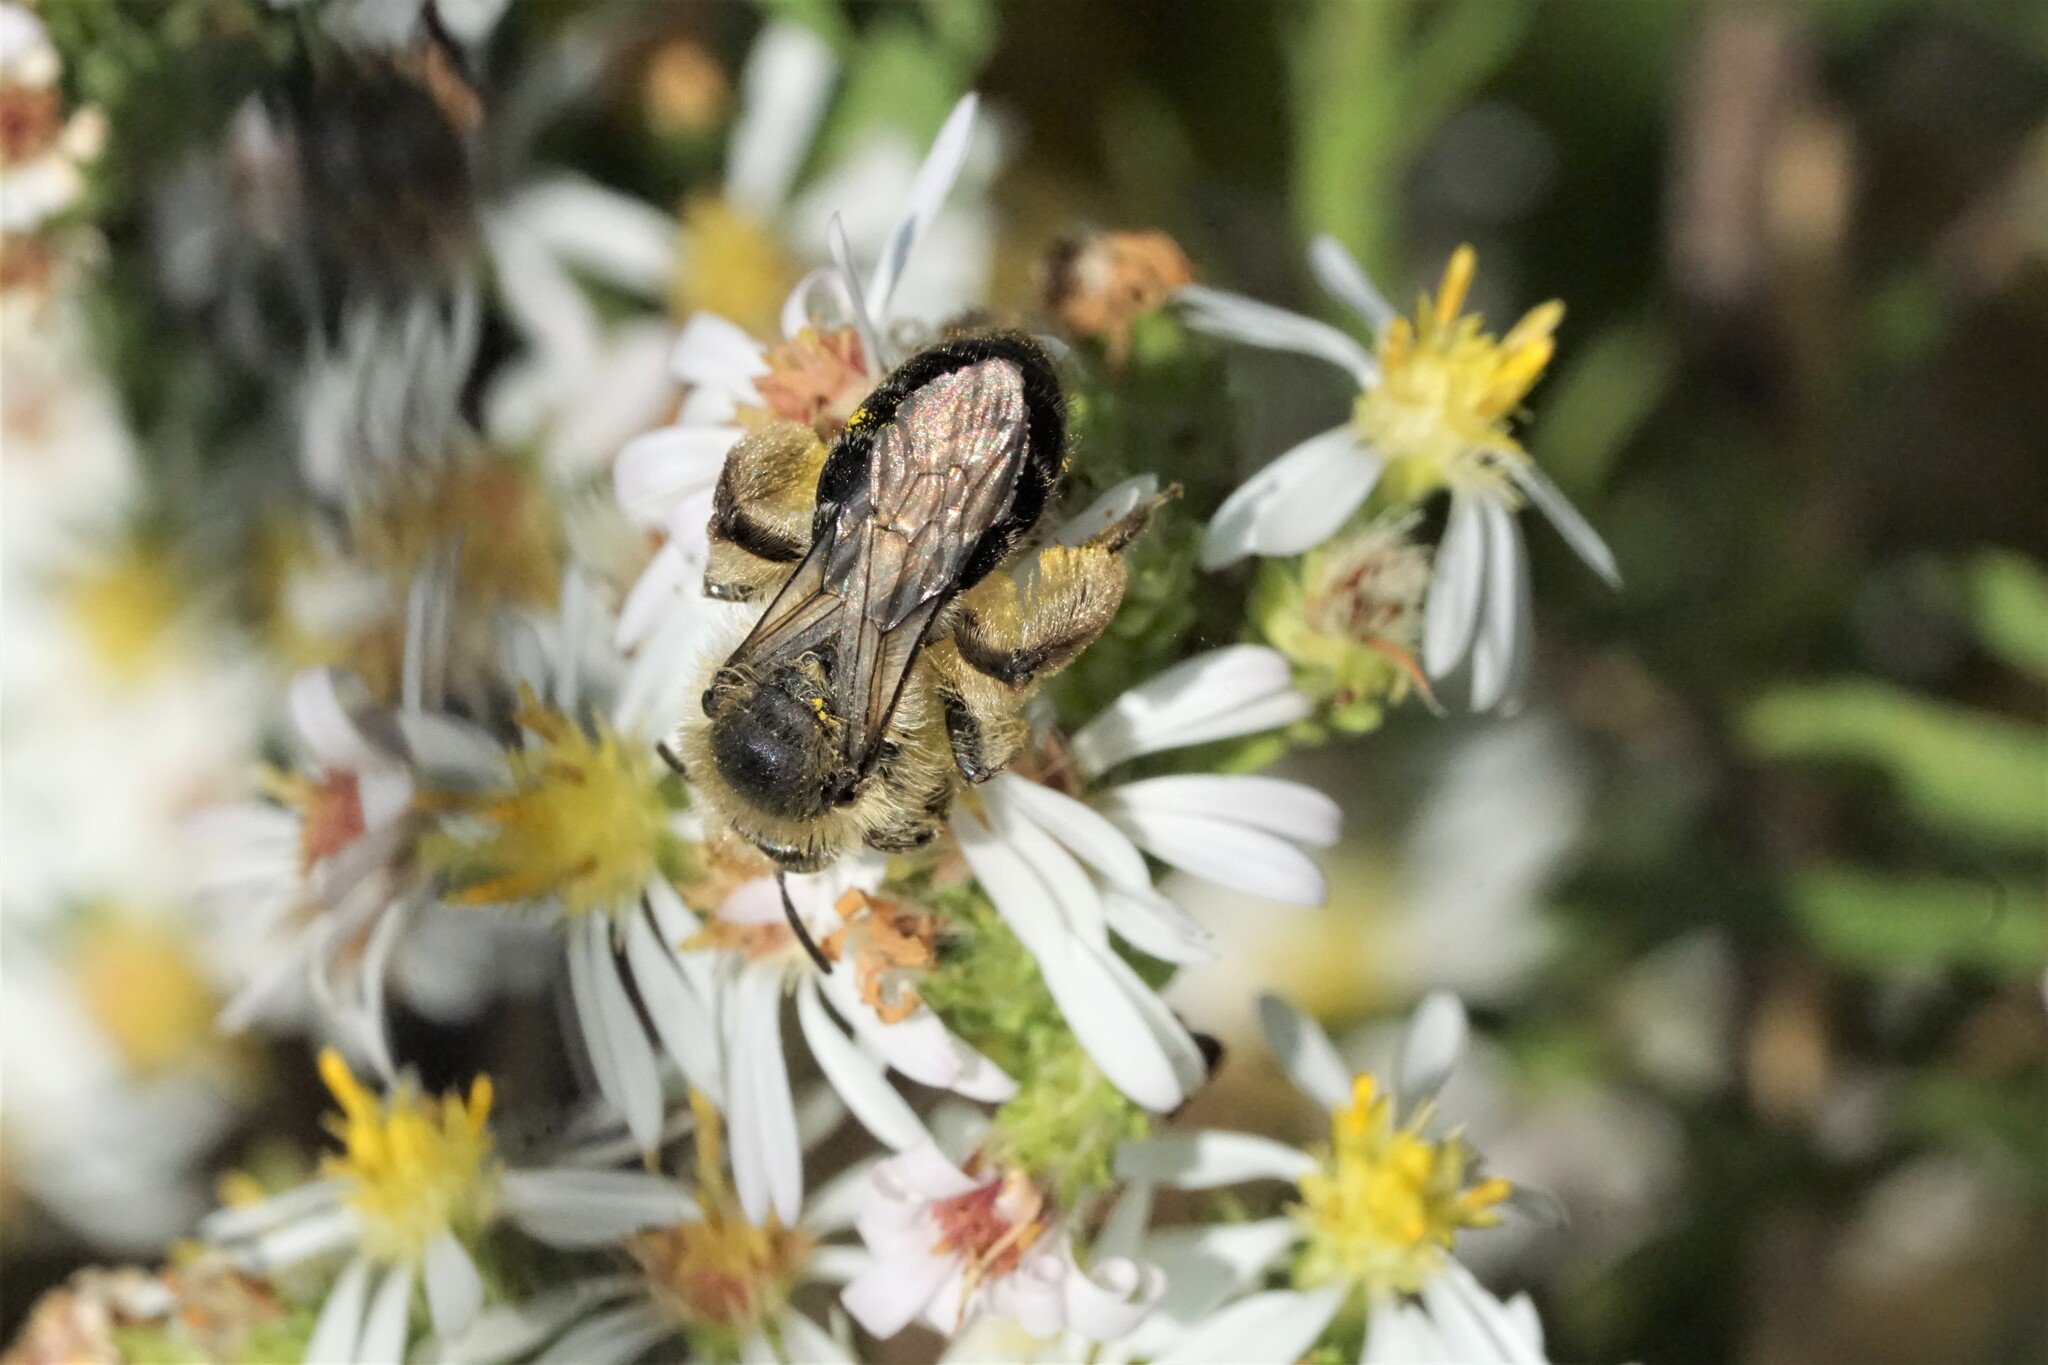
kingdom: Animalia
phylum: Arthropoda
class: Insecta
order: Hymenoptera
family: Andrenidae
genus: Andrena
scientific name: Andrena asteris
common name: Aster mining bee
